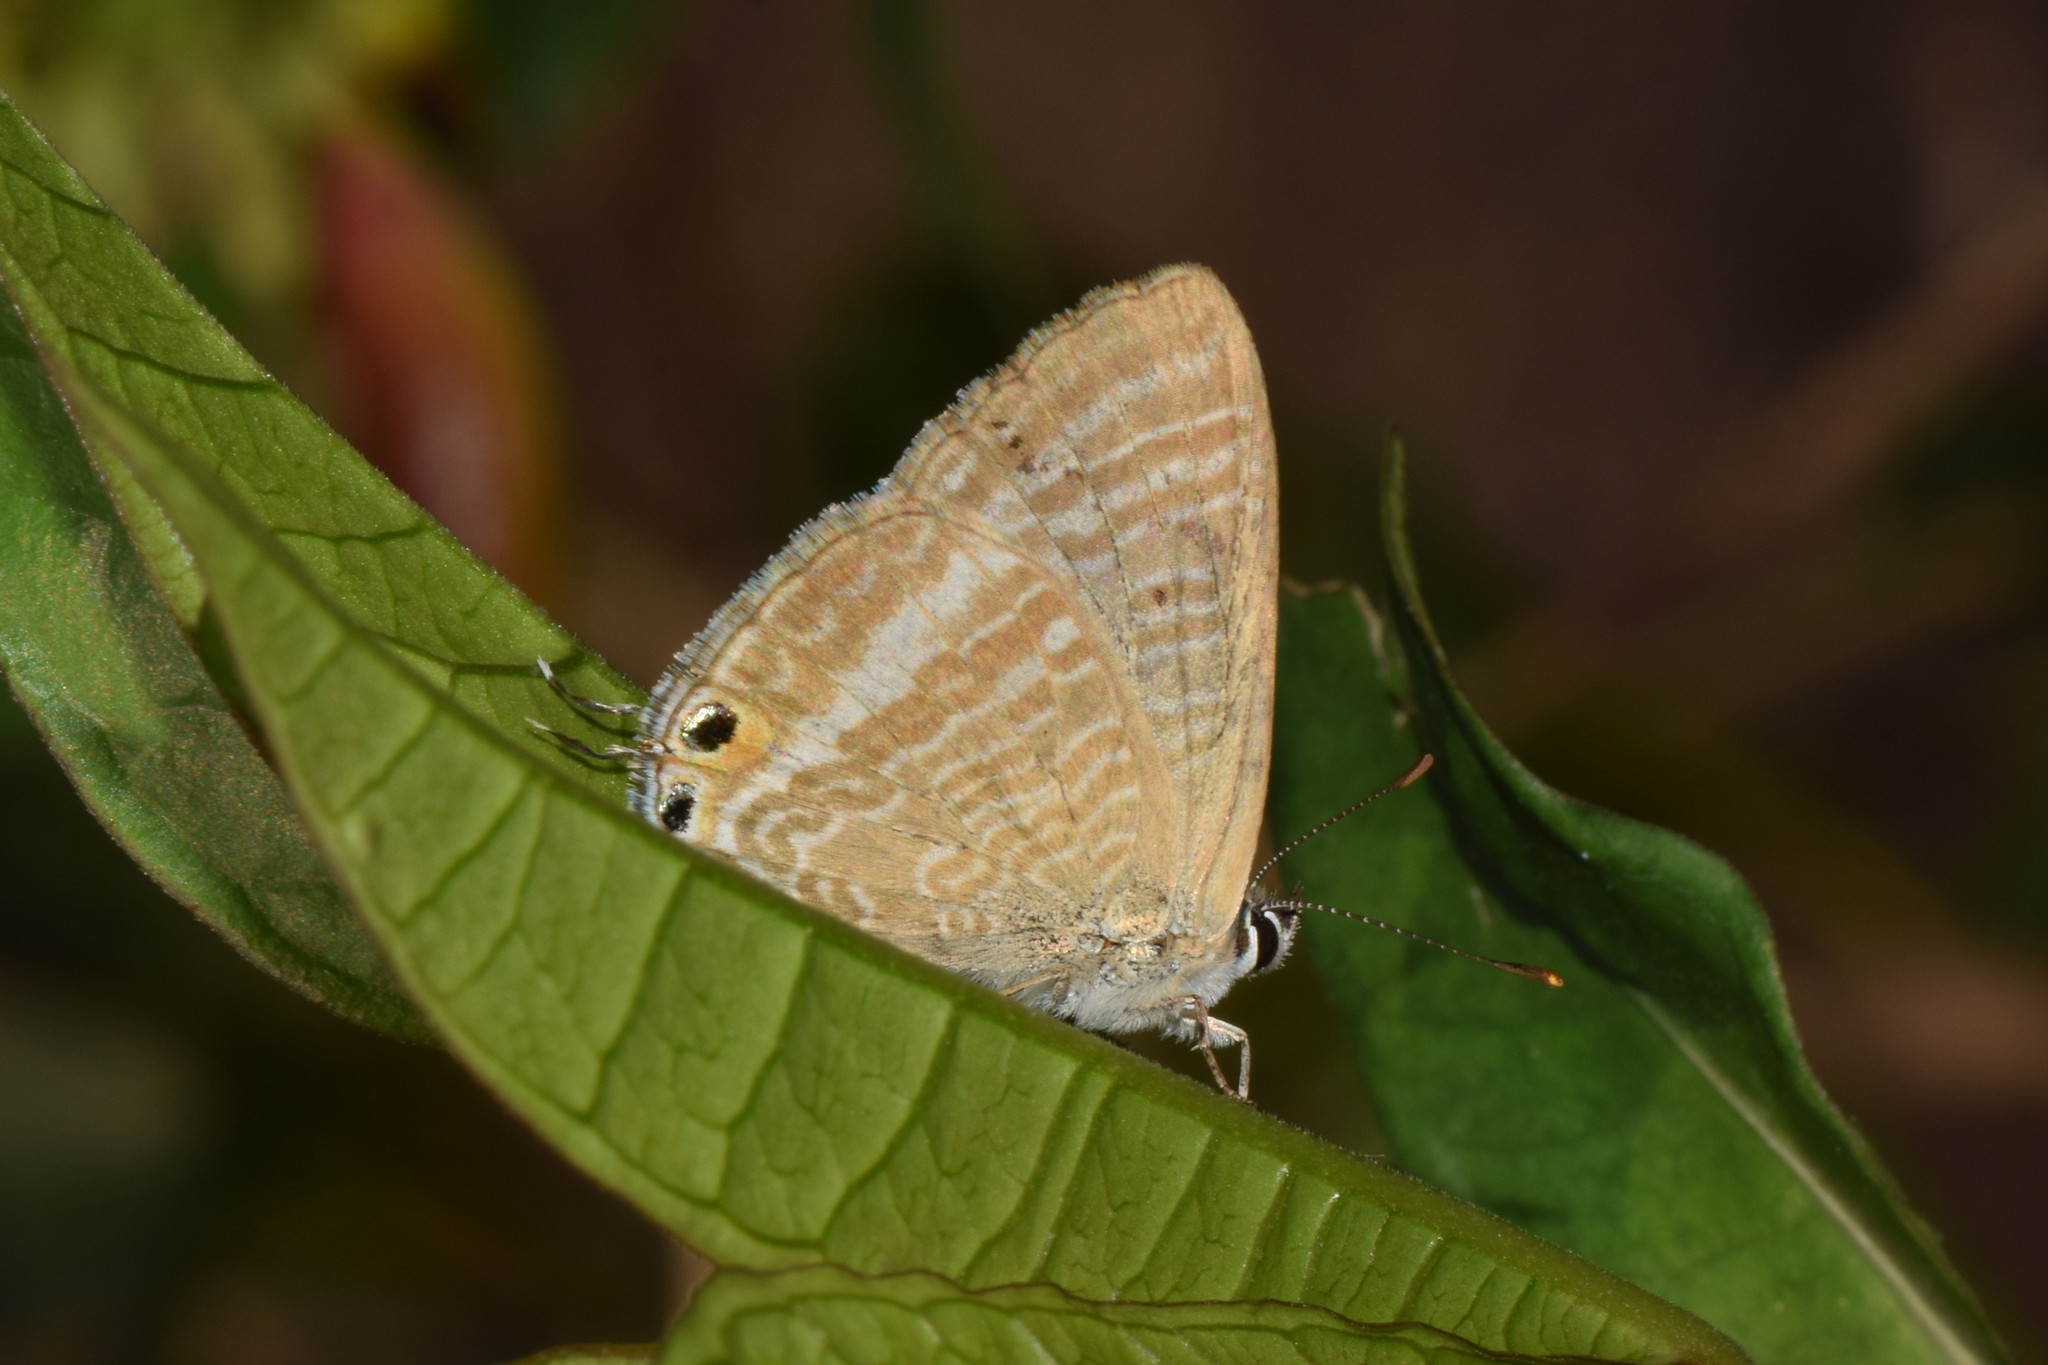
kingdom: Animalia
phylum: Arthropoda
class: Insecta
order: Lepidoptera
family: Lycaenidae
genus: Lampides
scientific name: Lampides boeticus
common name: Long-tailed blue
